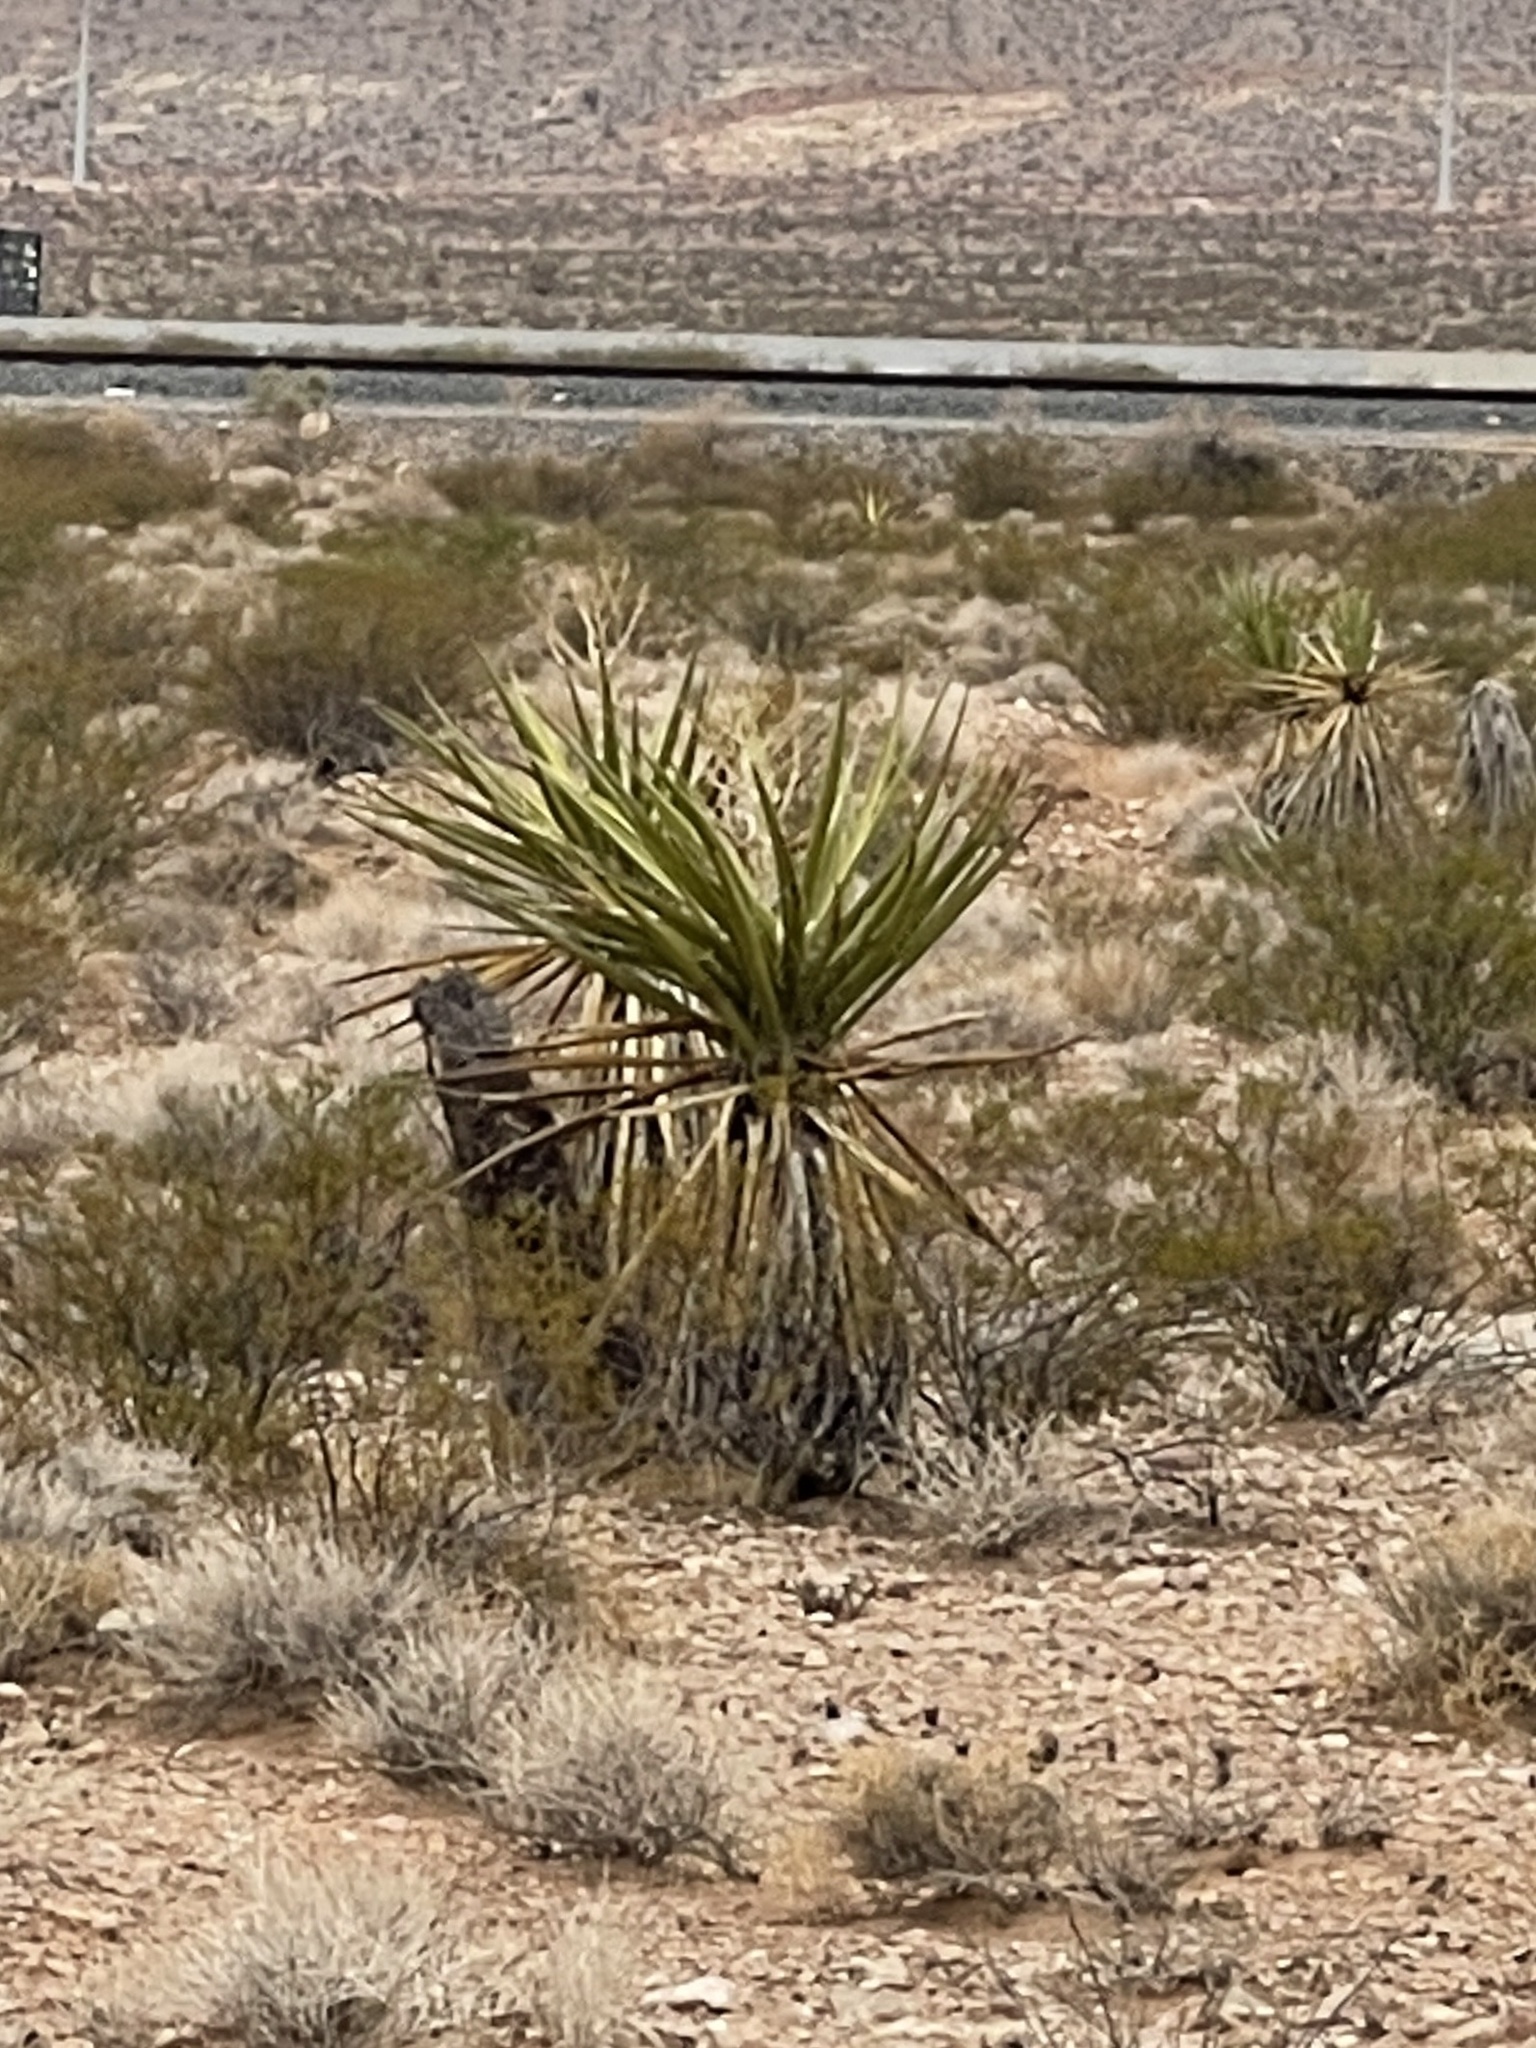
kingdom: Plantae
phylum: Tracheophyta
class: Liliopsida
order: Asparagales
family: Asparagaceae
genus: Yucca
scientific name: Yucca schidigera
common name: Mojave yucca
